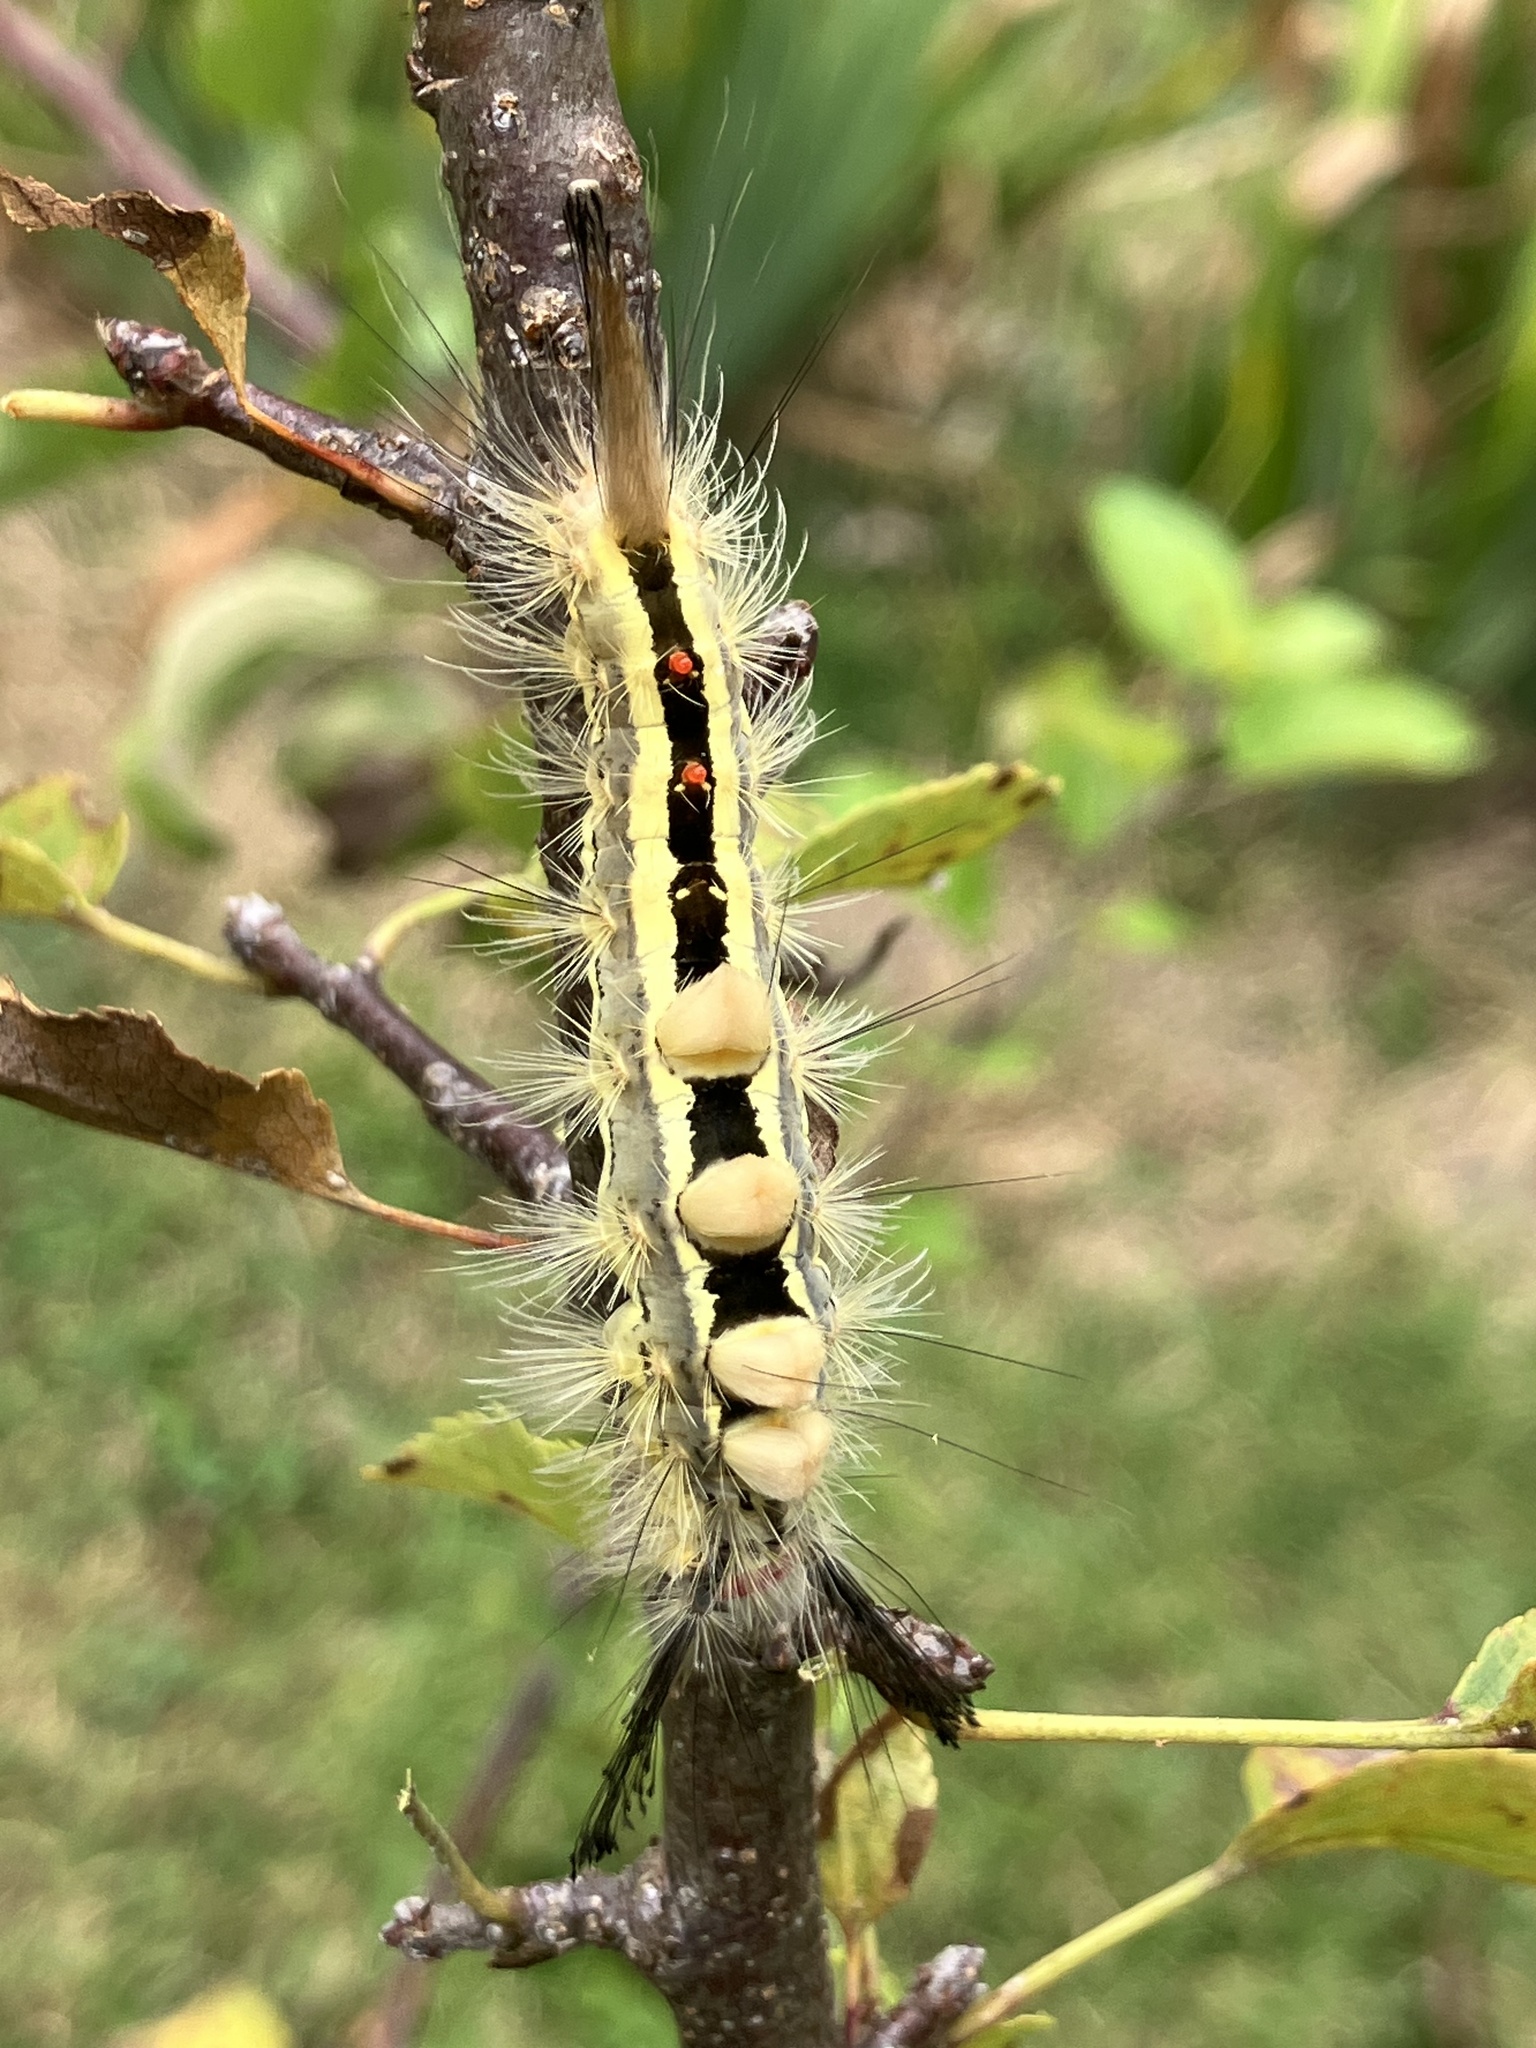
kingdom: Animalia
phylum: Arthropoda
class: Insecta
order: Lepidoptera
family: Erebidae
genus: Orgyia
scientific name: Orgyia leucostigma
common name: White-marked tussock moth
